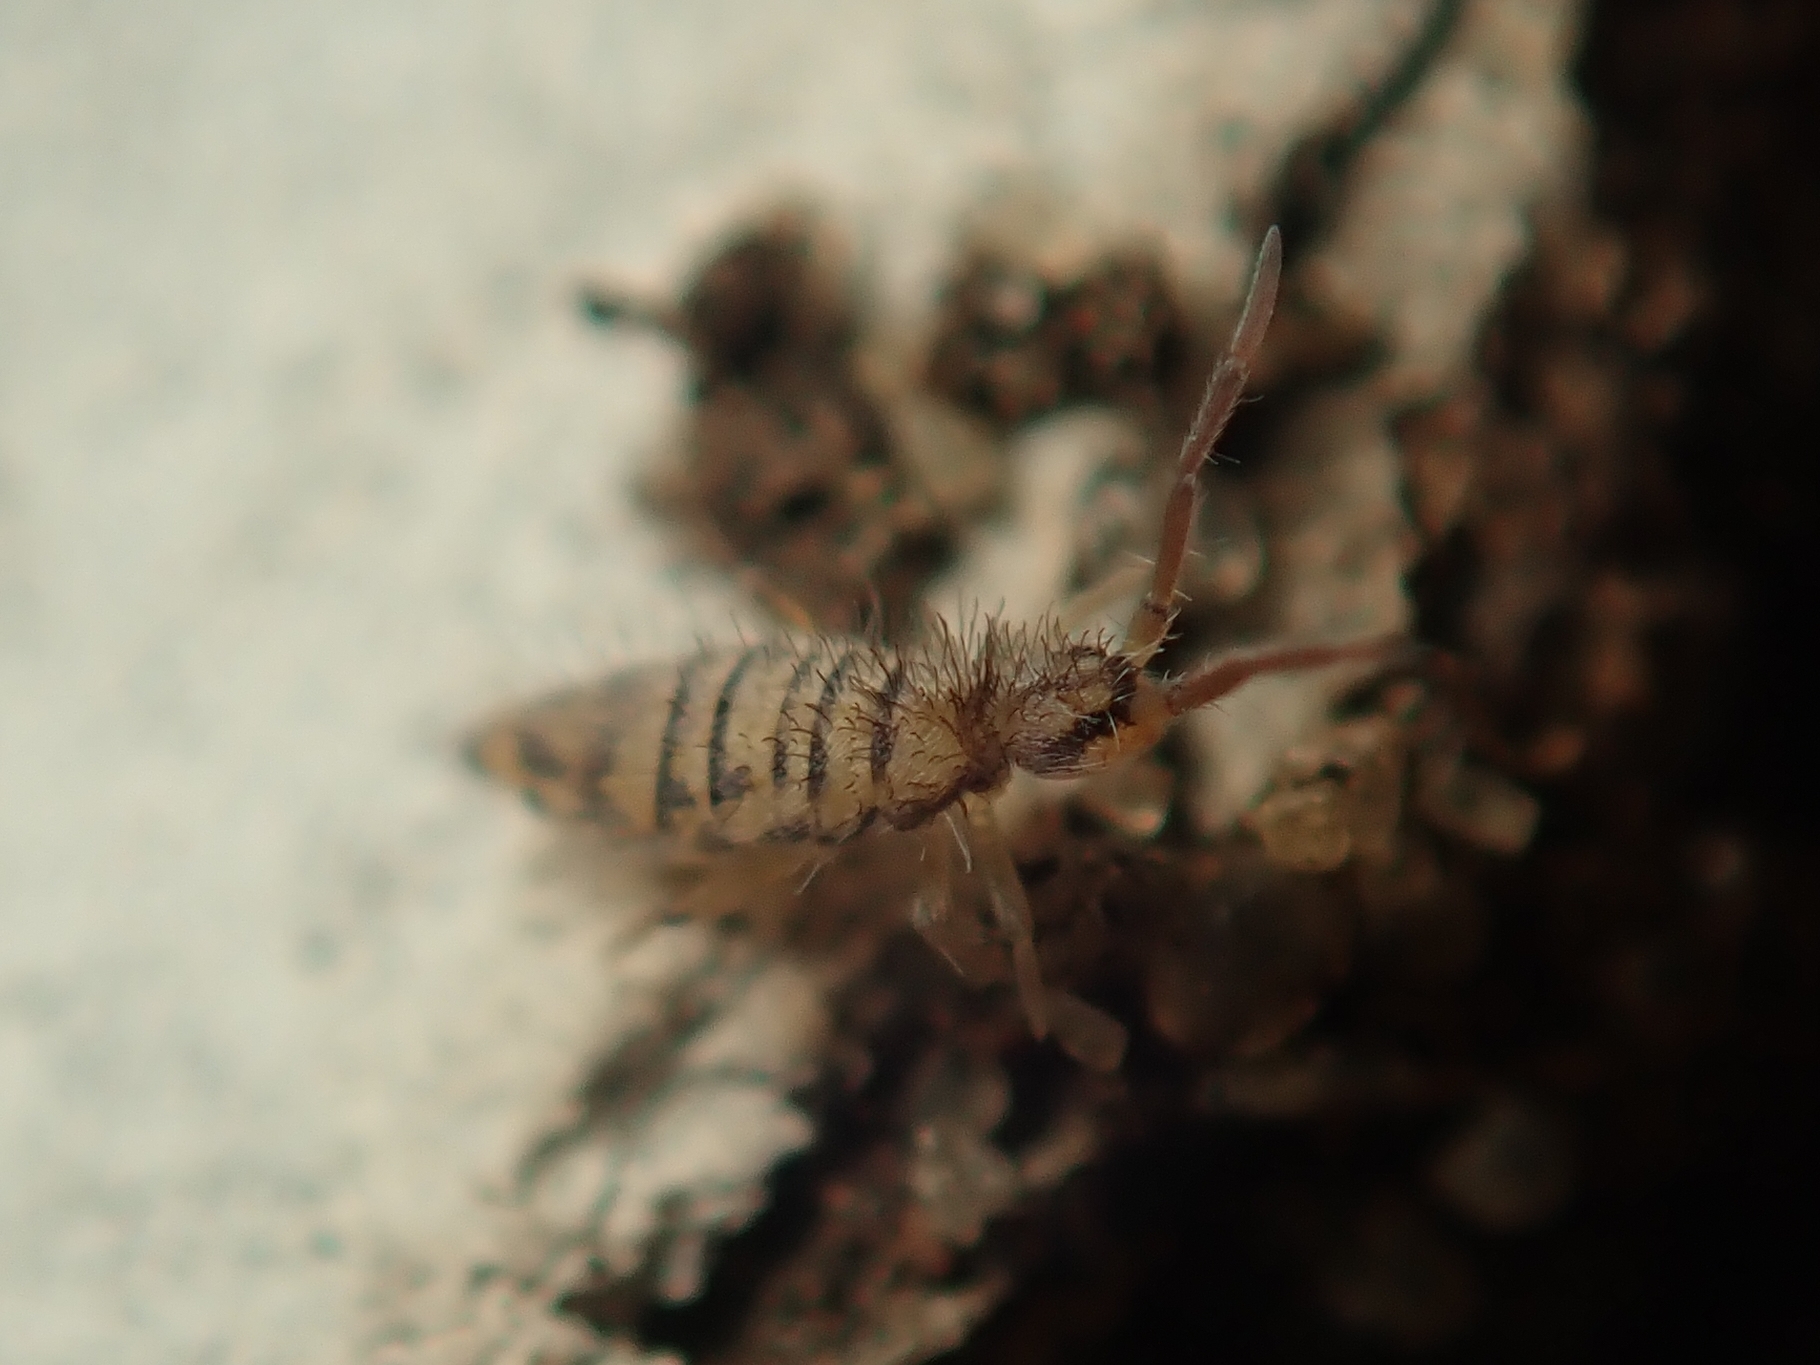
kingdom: Animalia
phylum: Arthropoda
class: Collembola
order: Entomobryomorpha
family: Entomobryidae
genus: Entomobrya
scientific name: Entomobrya multifasciata
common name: Springtail
